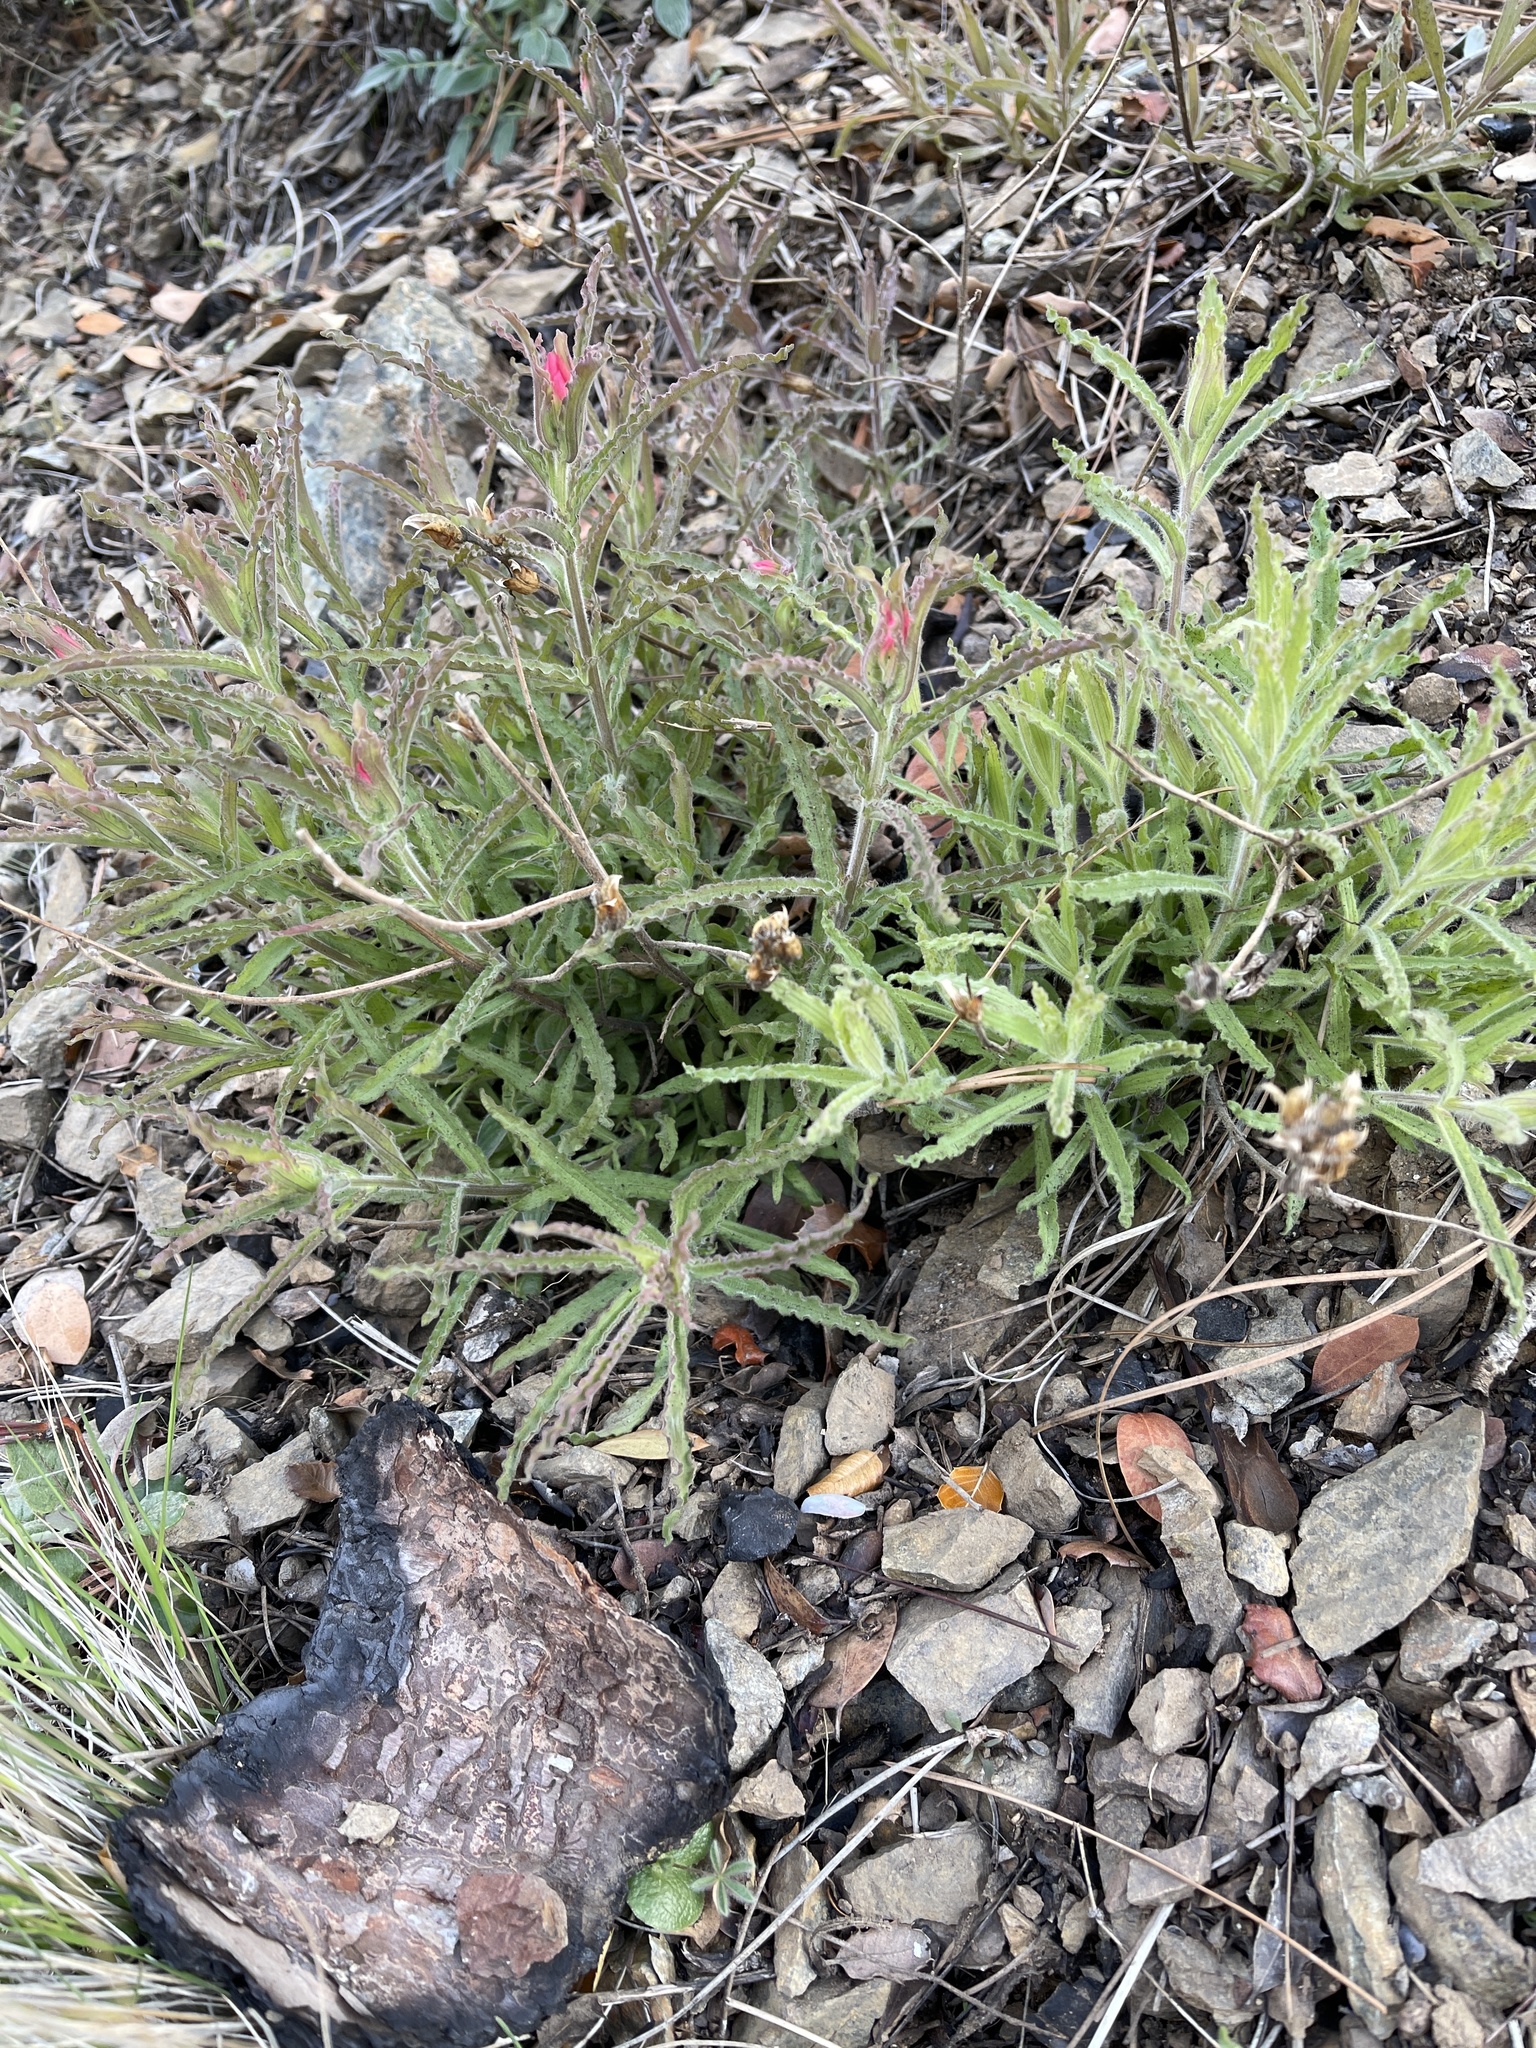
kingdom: Plantae
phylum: Tracheophyta
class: Magnoliopsida
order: Lamiales
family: Orobanchaceae
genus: Castilleja
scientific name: Castilleja martini
